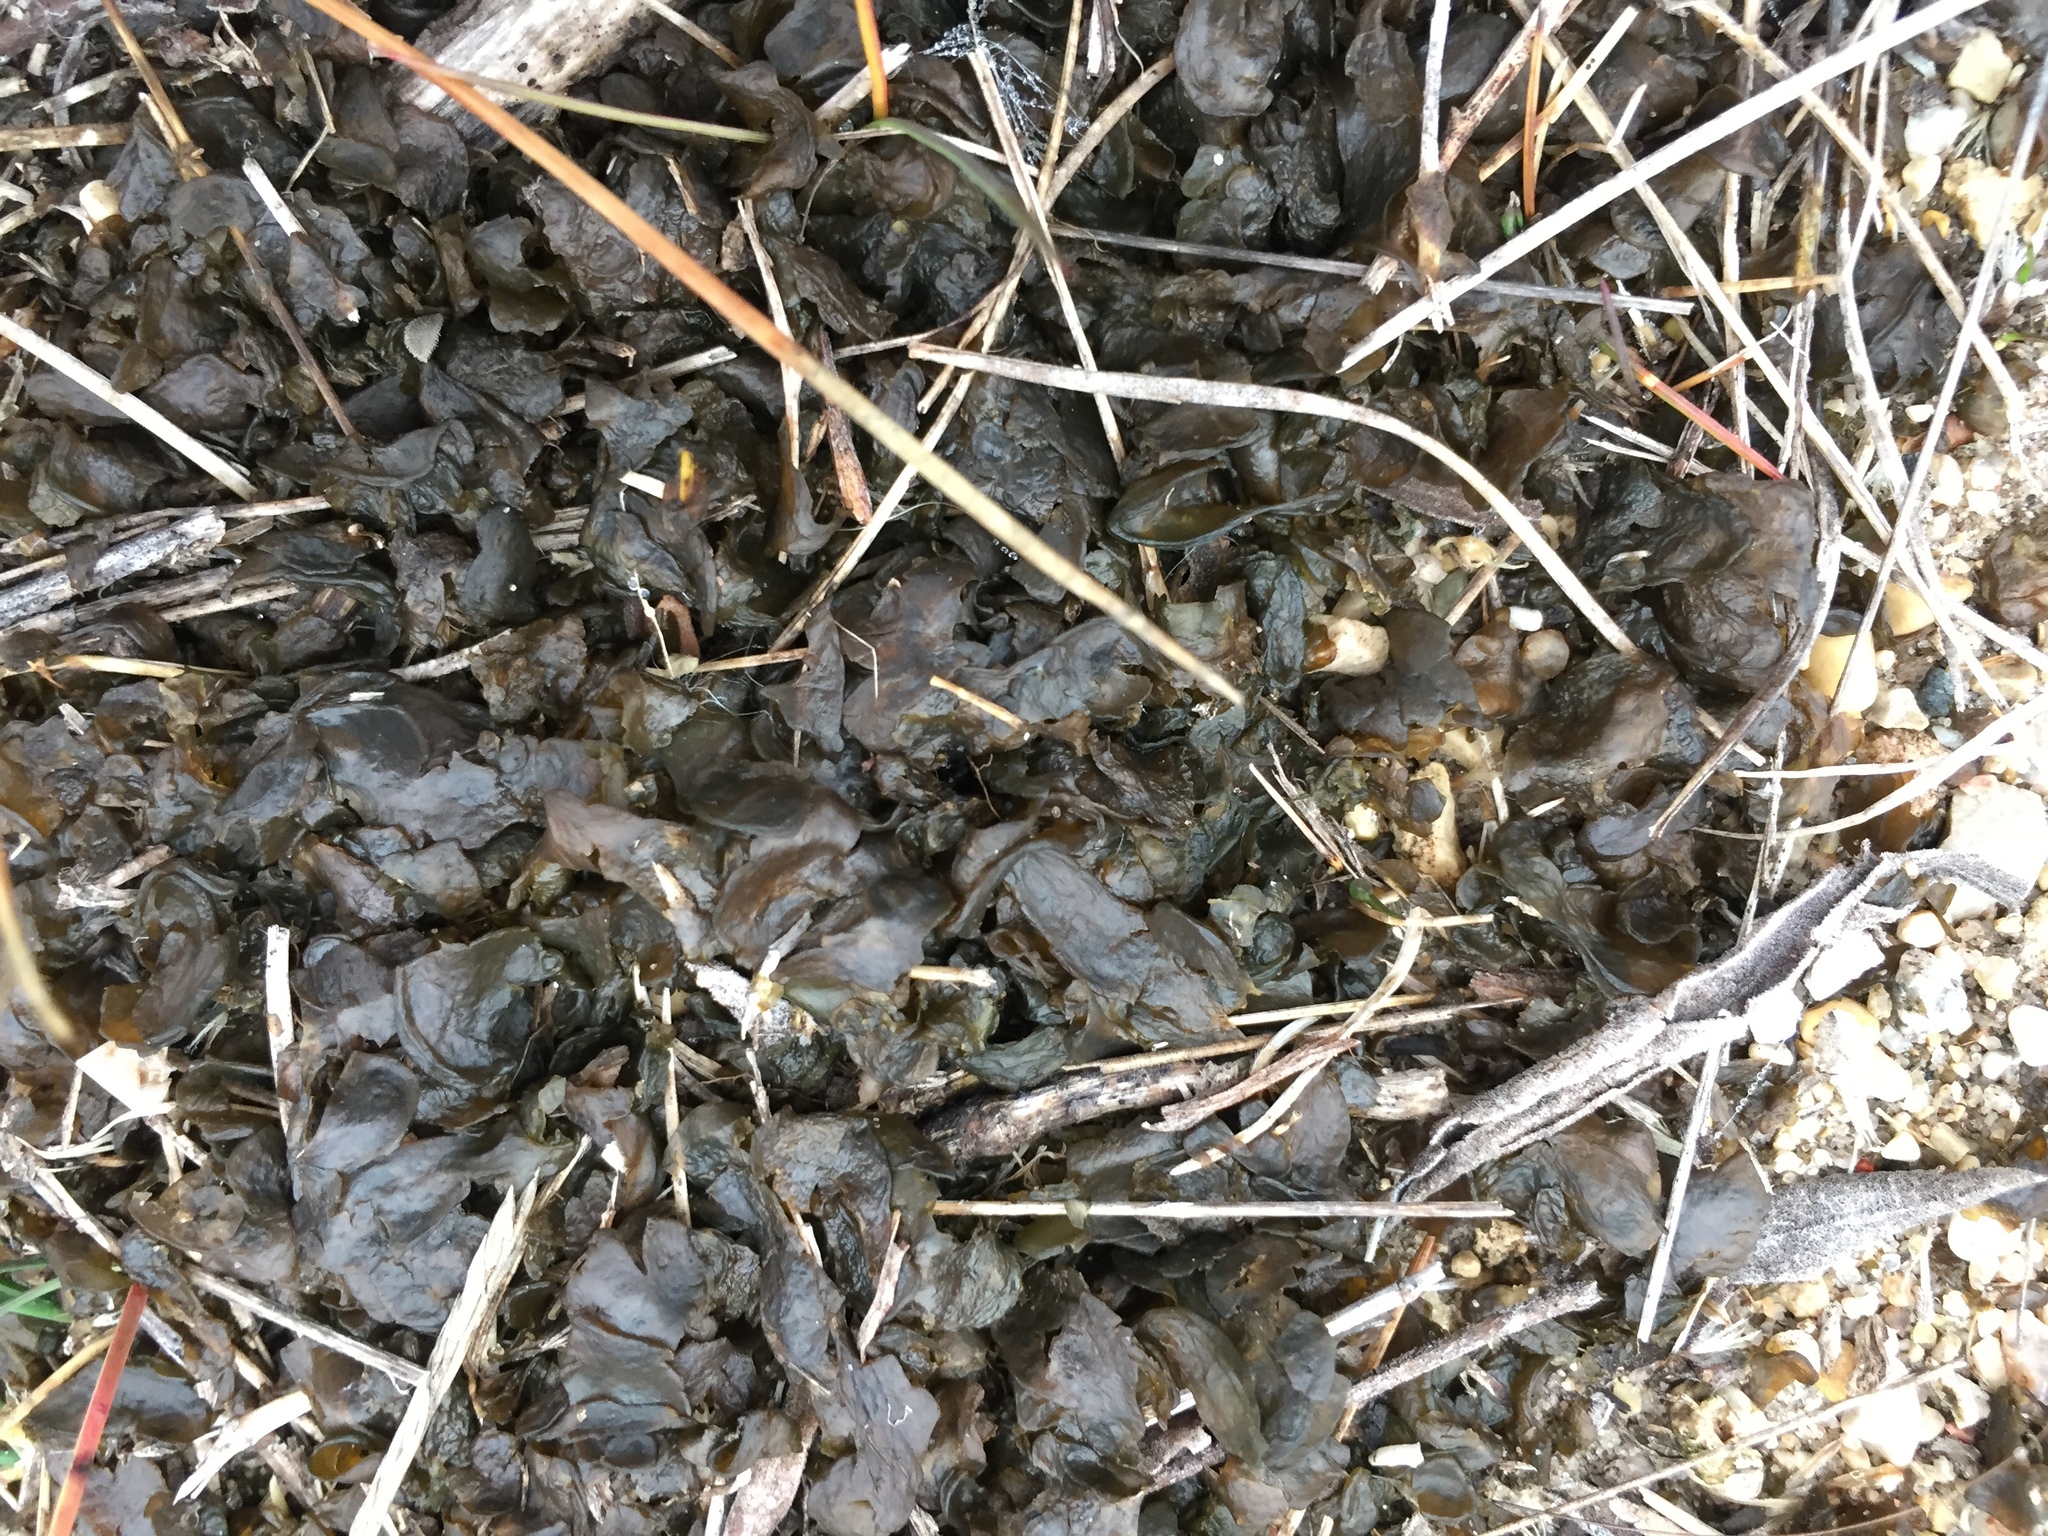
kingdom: Bacteria
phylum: Cyanobacteria
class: Cyanobacteriia
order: Cyanobacteriales
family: Nostocaceae
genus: Nostoc
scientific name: Nostoc commune
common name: Star jelly
